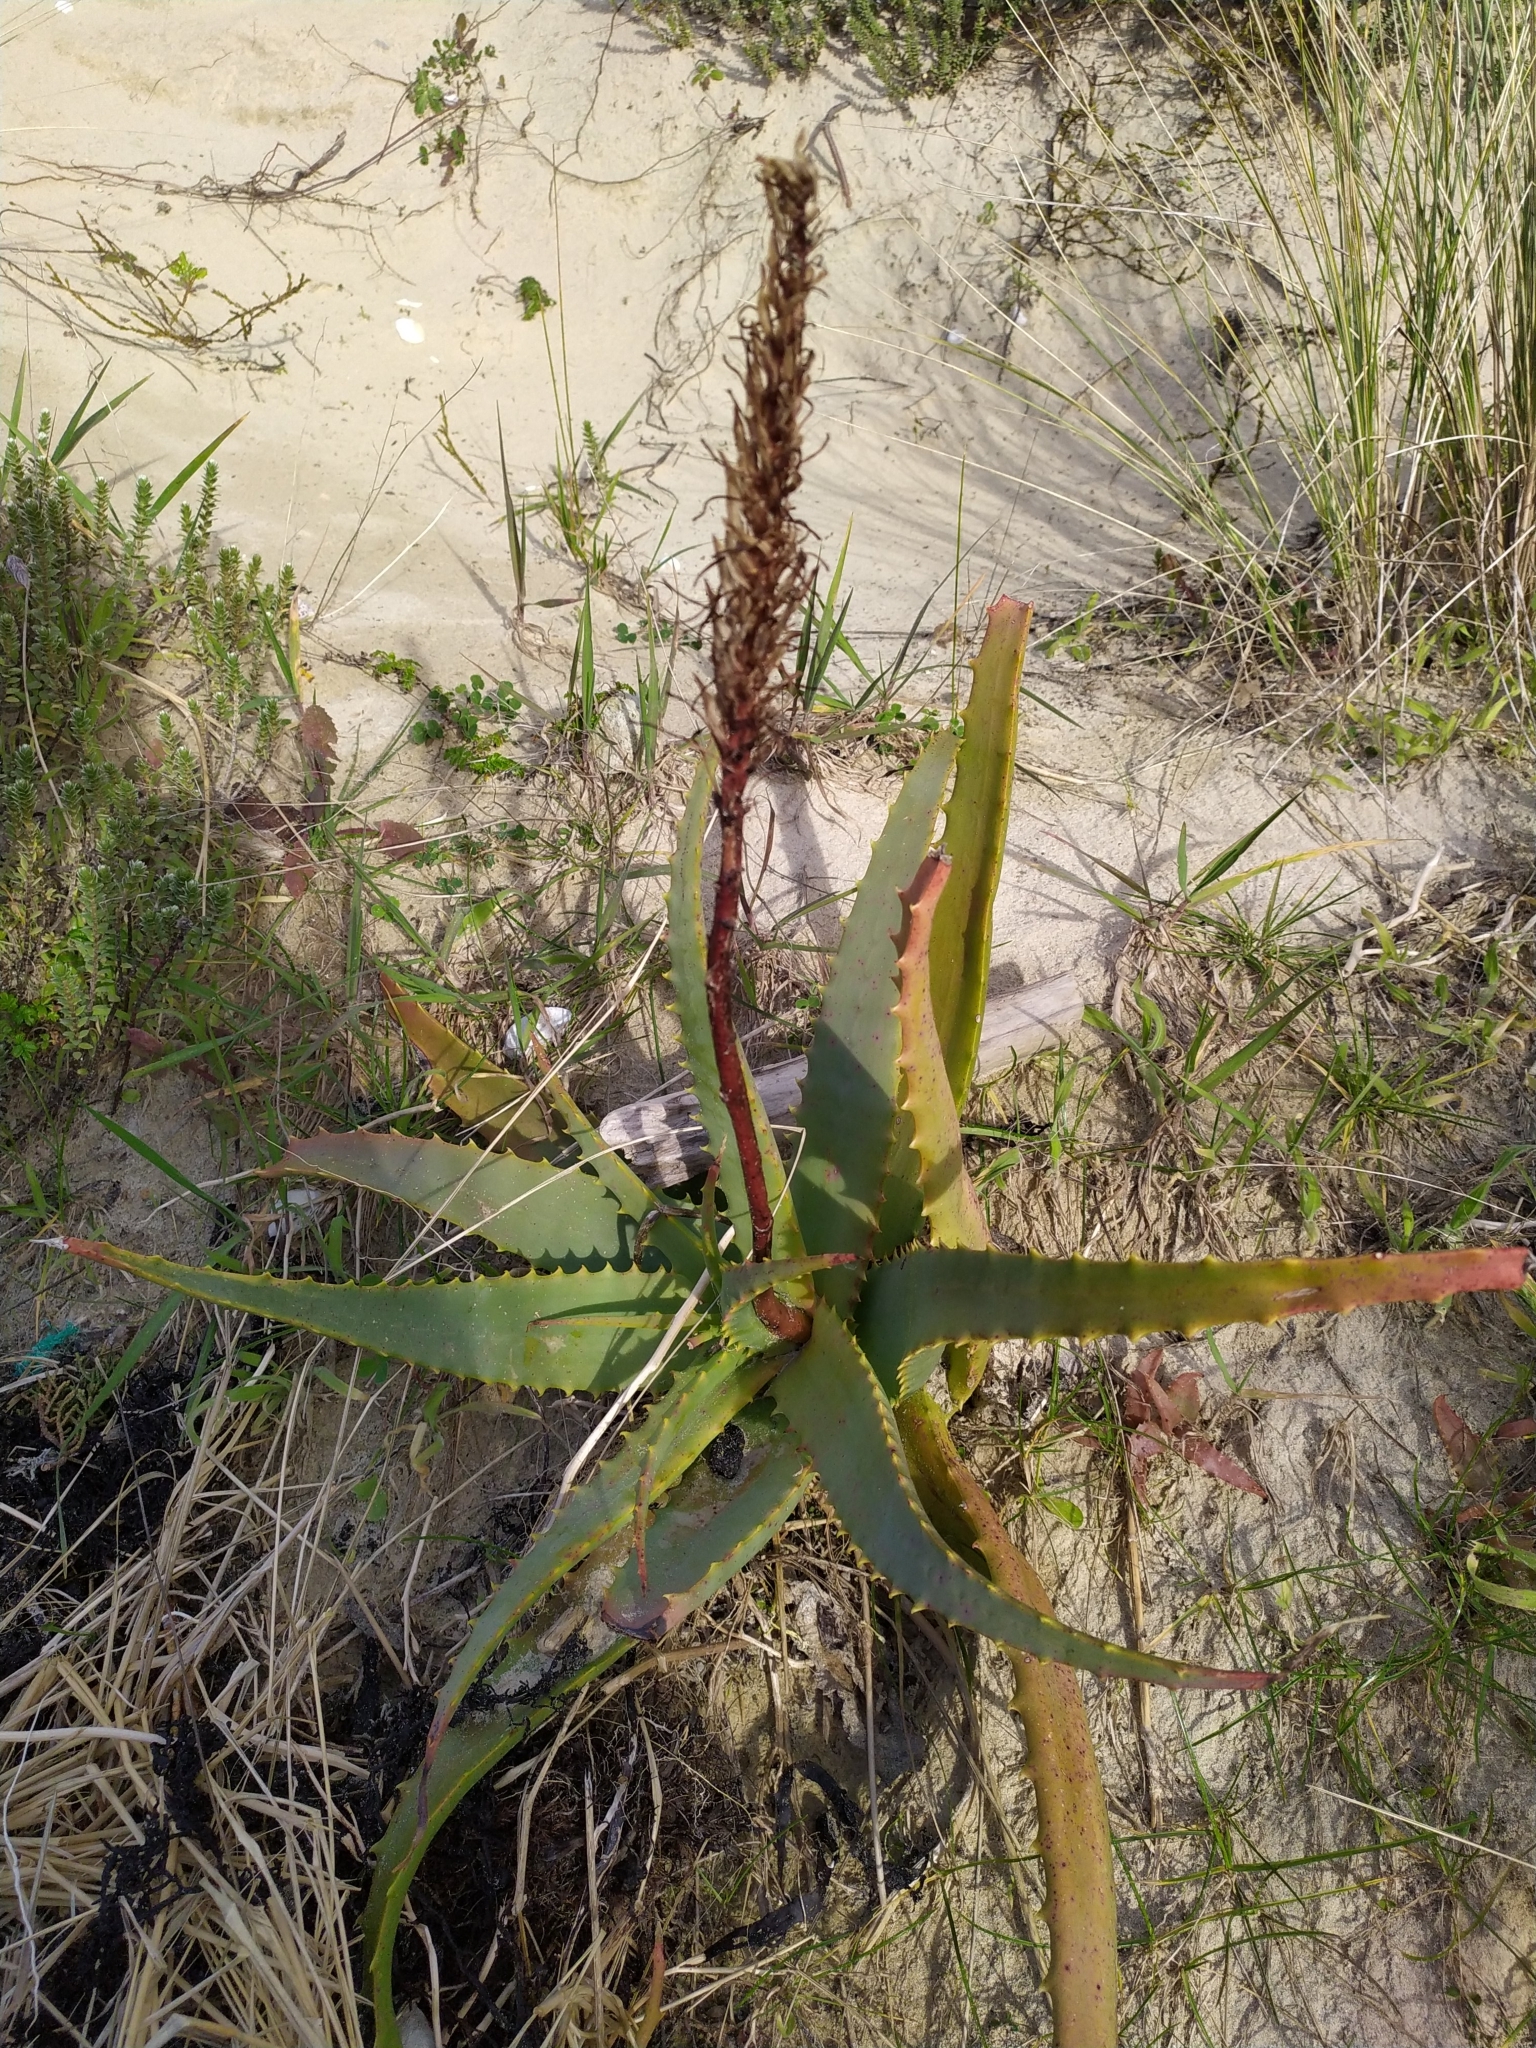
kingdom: Plantae
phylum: Tracheophyta
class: Liliopsida
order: Asparagales
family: Asphodelaceae
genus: Aloe
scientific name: Aloe arborescens
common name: Candelabra aloe
